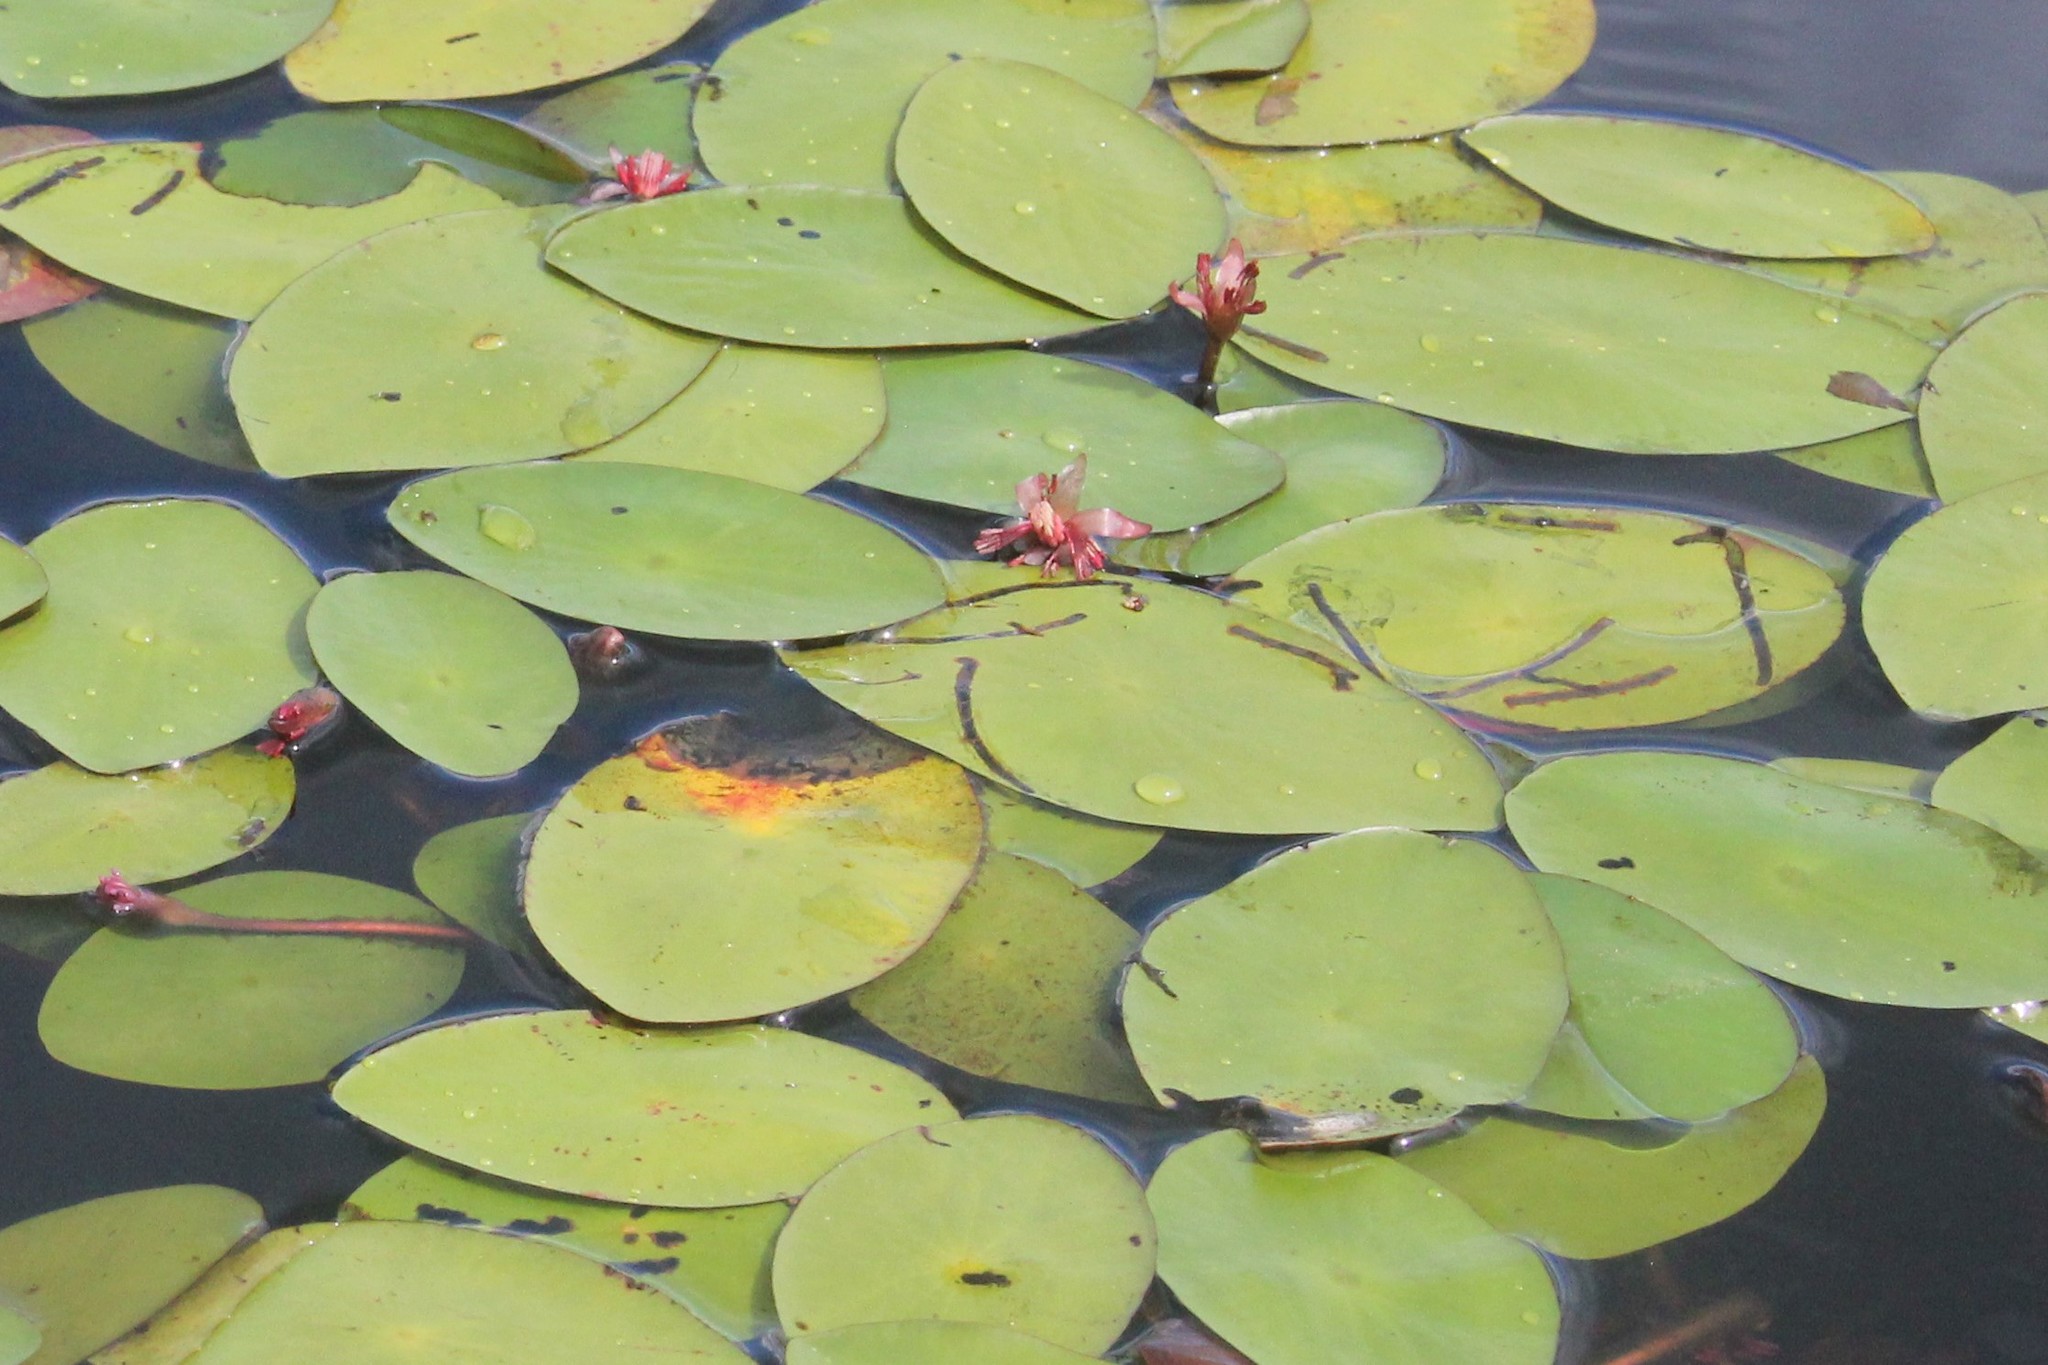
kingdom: Animalia
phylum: Arthropoda
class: Insecta
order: Diptera
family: Chironomidae
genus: Polypedilum
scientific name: Polypedilum braseniae
